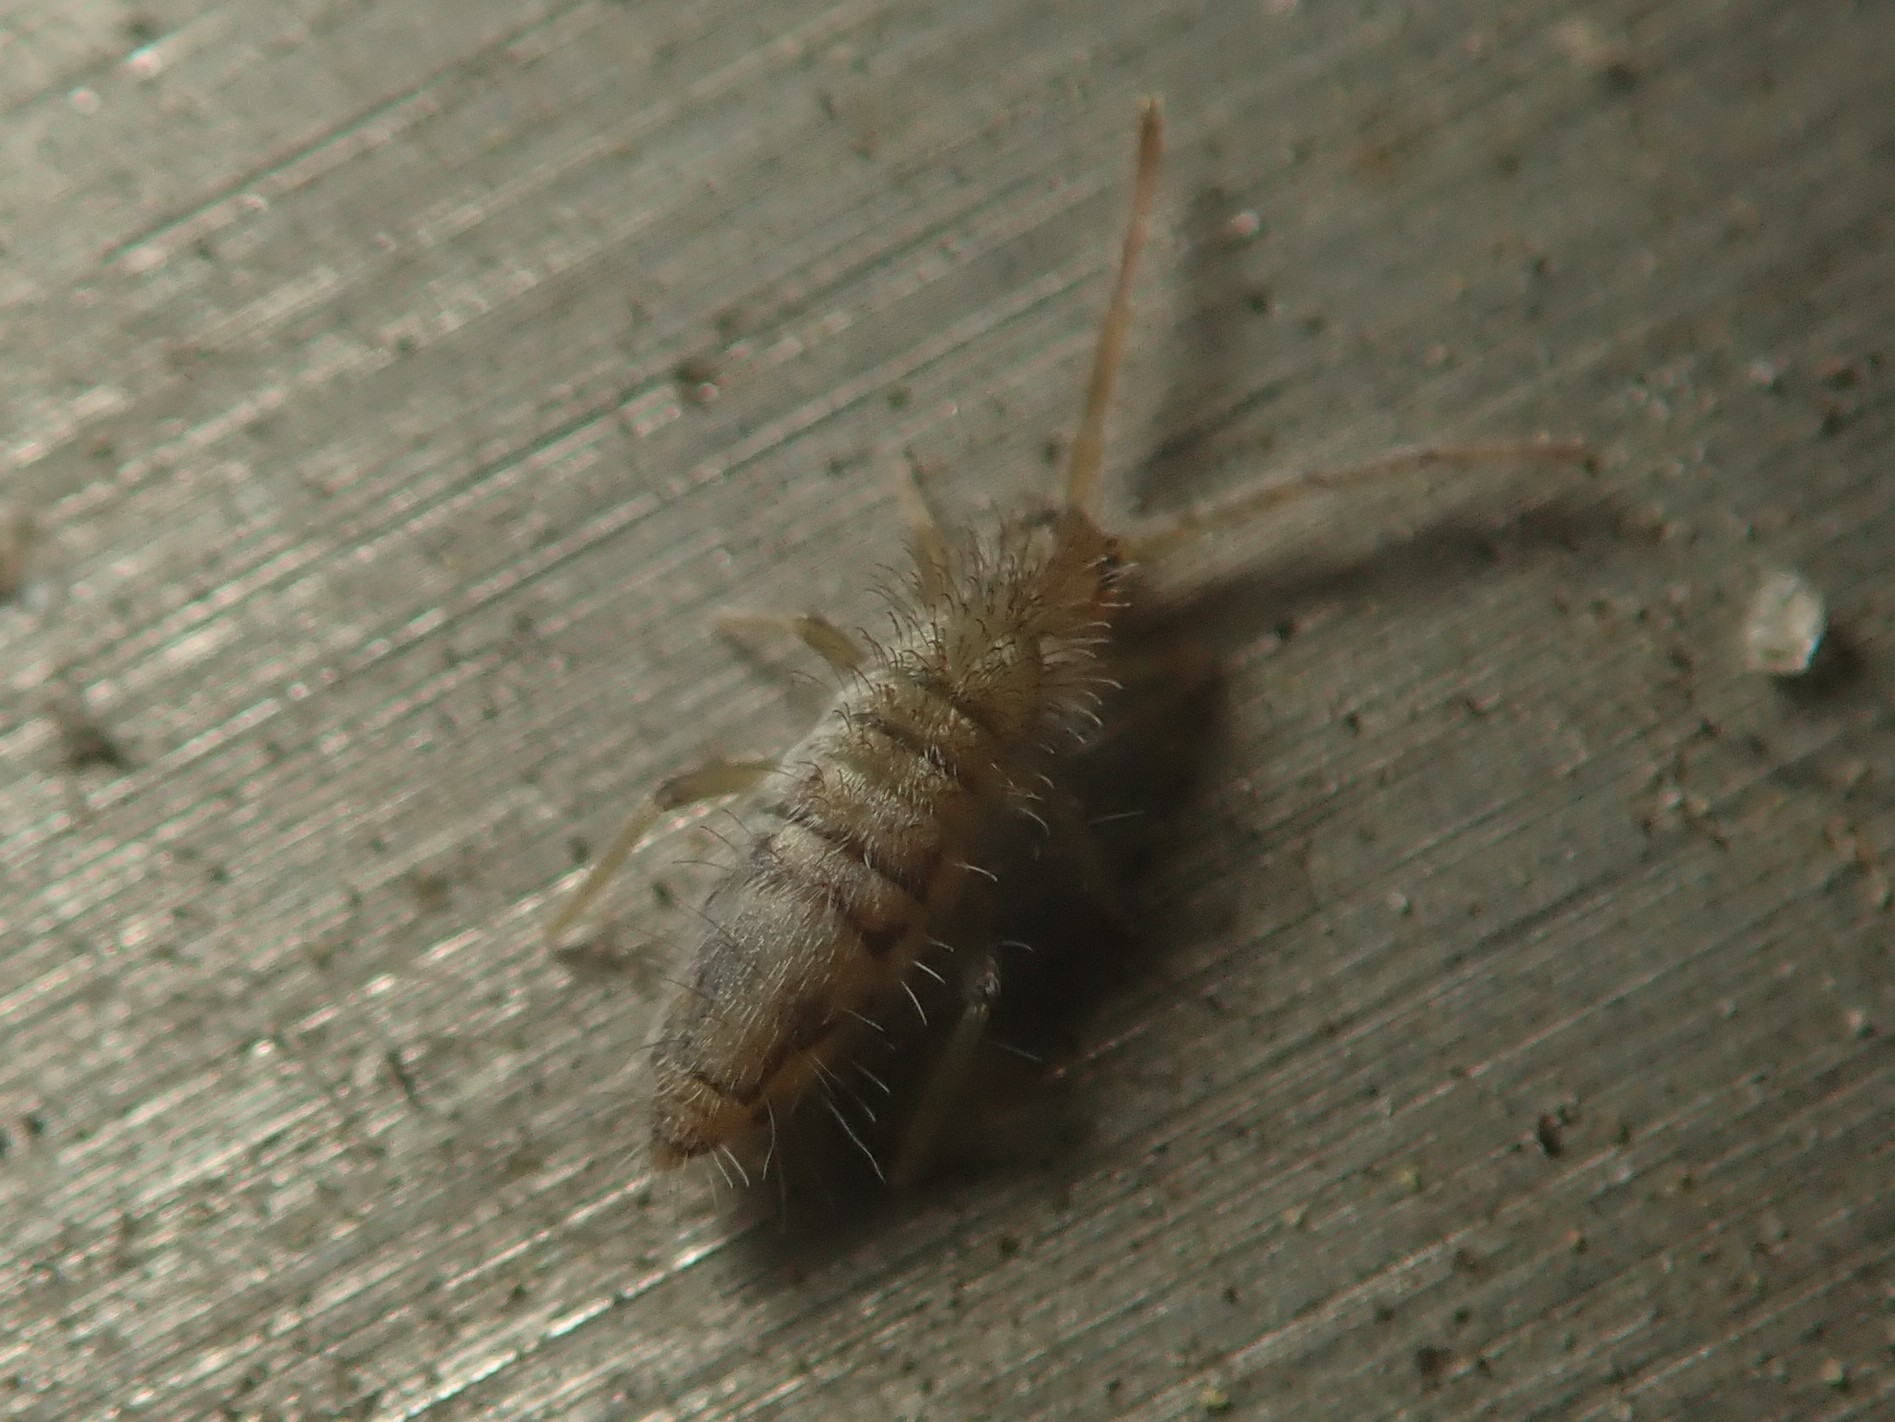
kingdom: Animalia
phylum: Arthropoda
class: Collembola
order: Entomobryomorpha
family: Entomobryidae
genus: Entomobrya
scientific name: Entomobrya nivalis
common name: Cosmopolitan springtail
